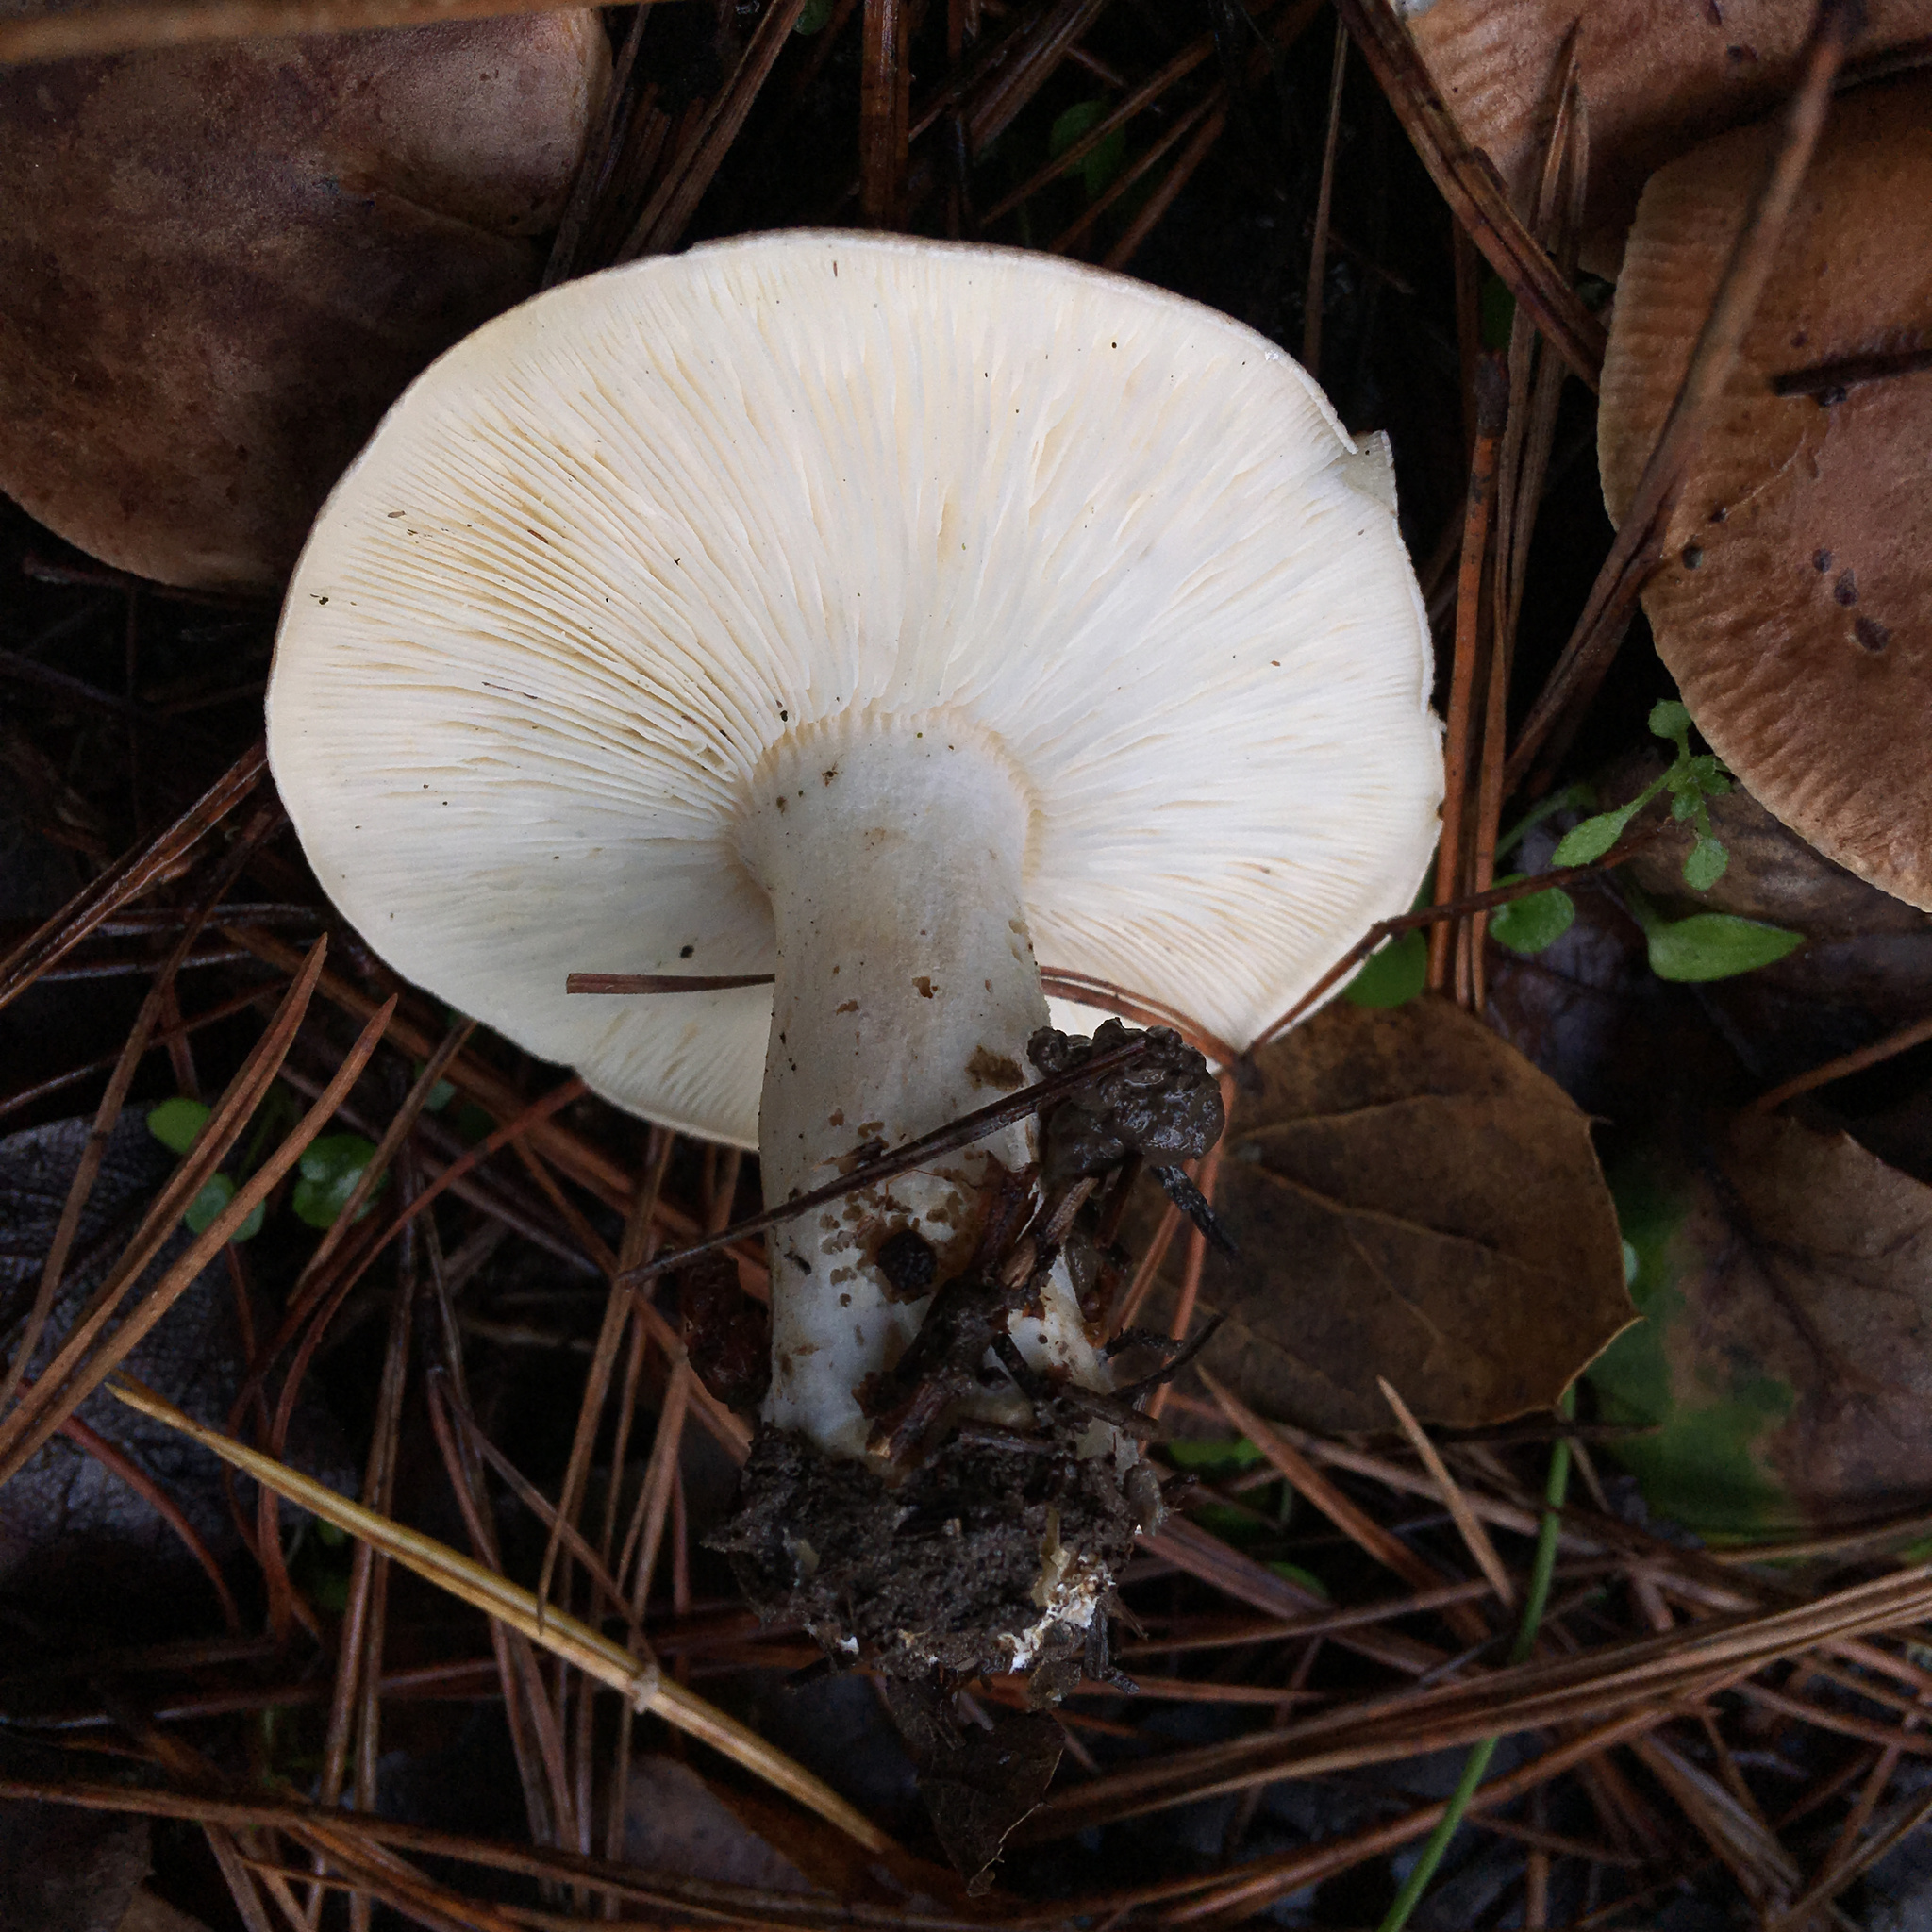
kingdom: Fungi
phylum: Basidiomycota
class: Agaricomycetes
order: Agaricales
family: Tricholomataceae
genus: Leucopaxillus
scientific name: Leucopaxillus gentianeus
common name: Bitter funnel
